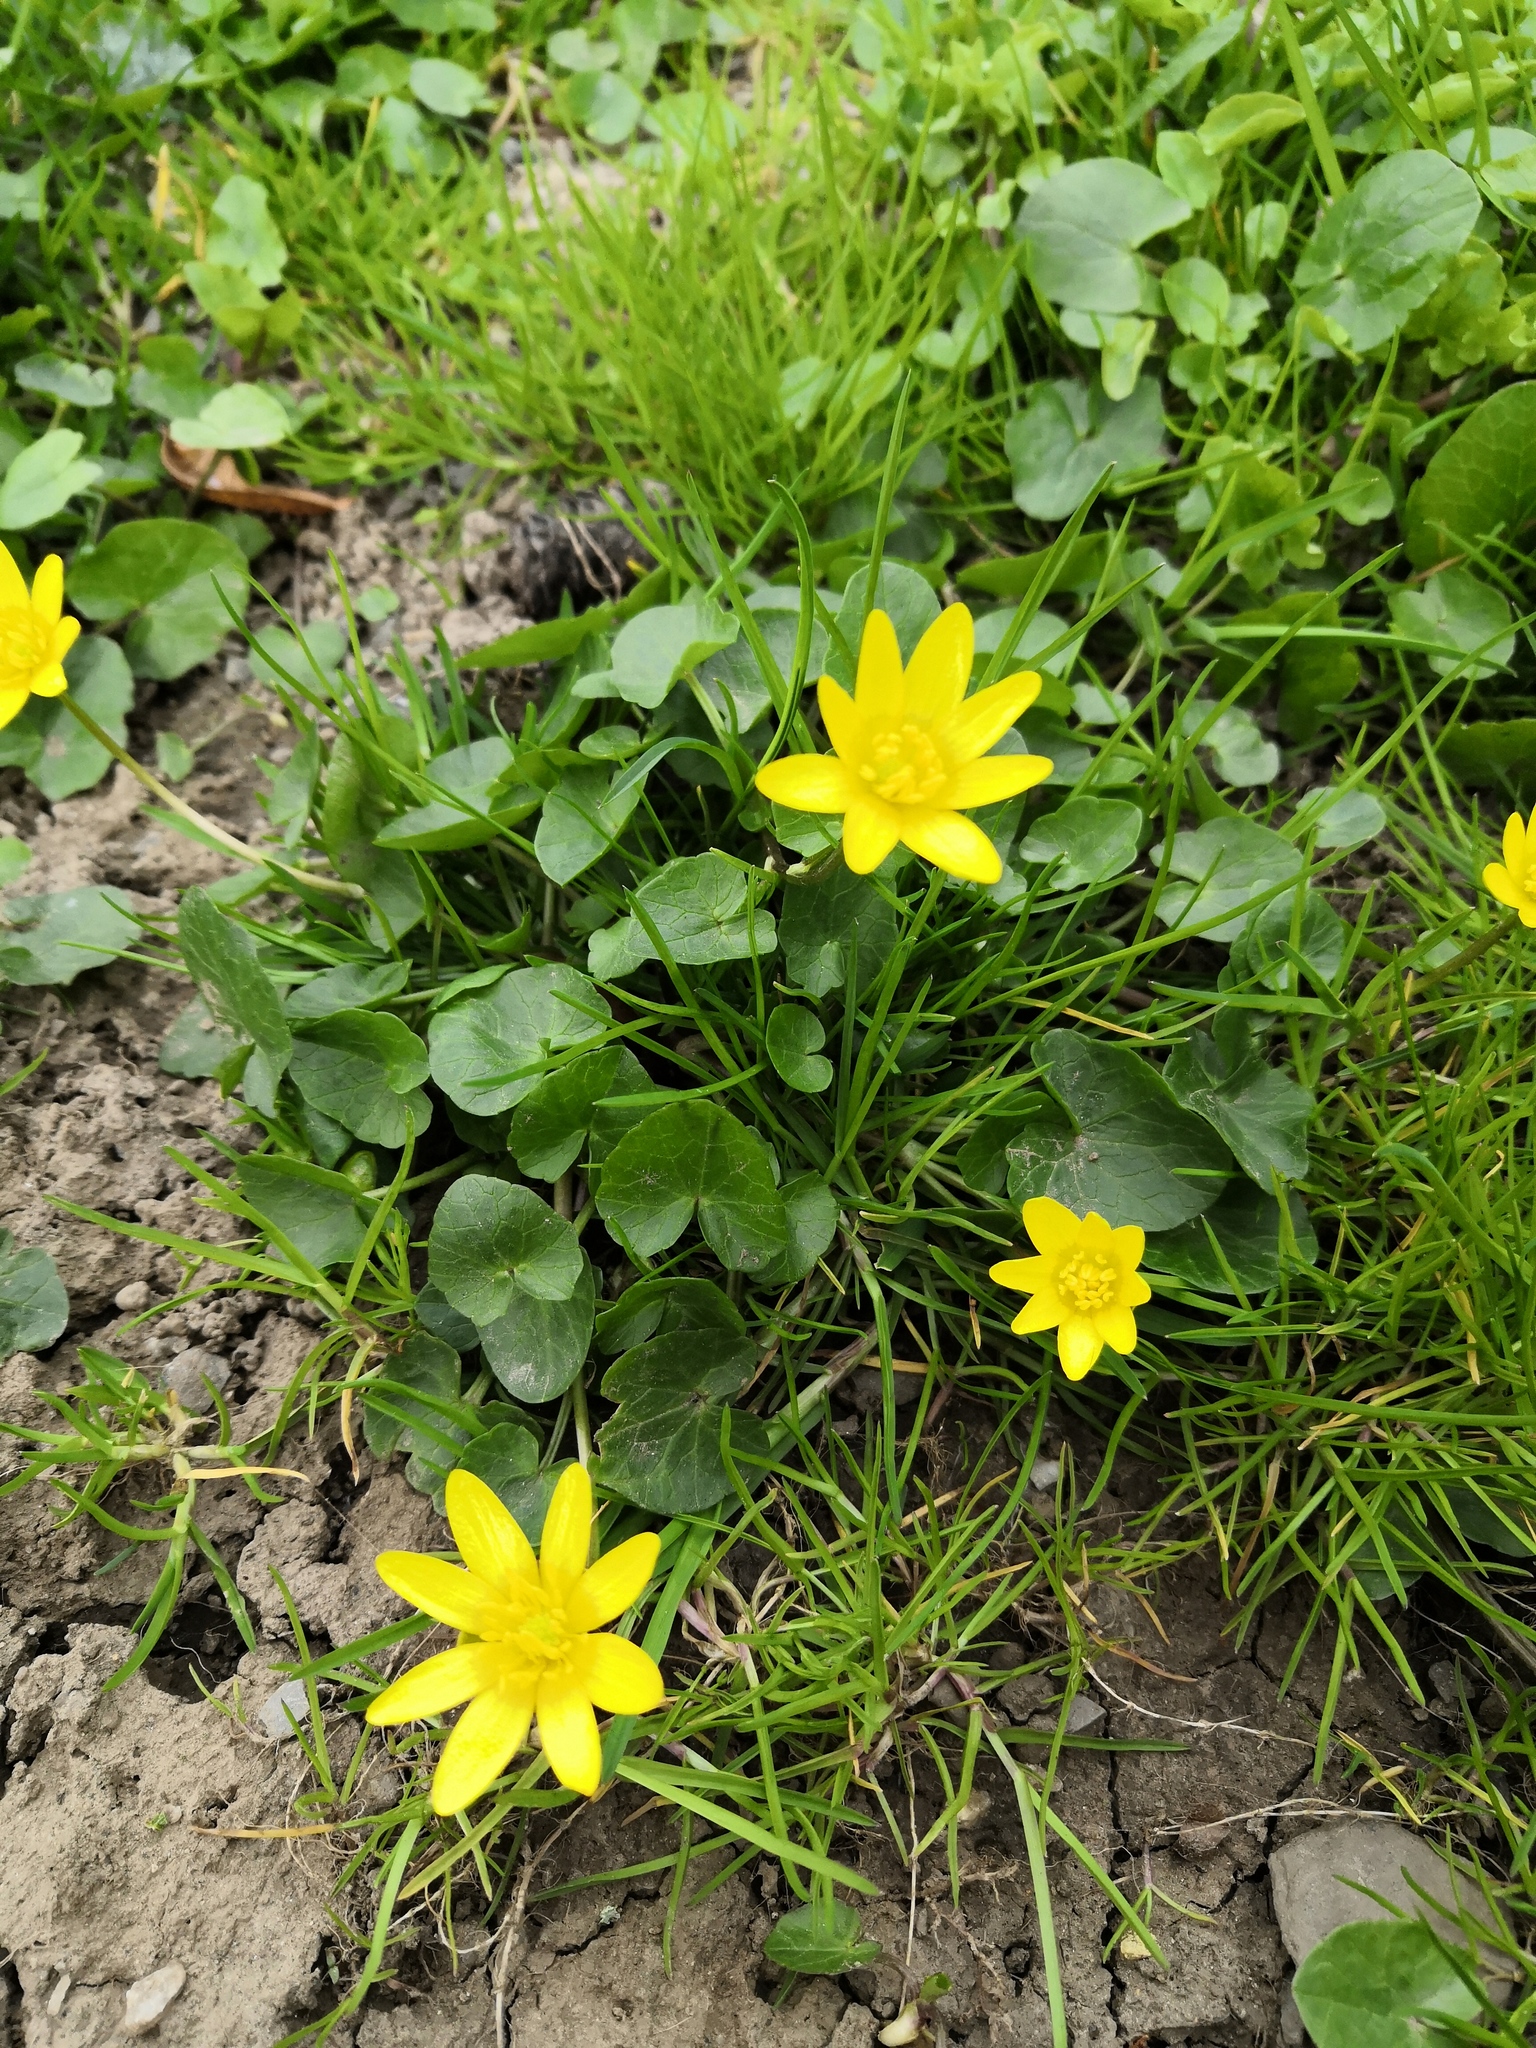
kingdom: Plantae
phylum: Tracheophyta
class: Magnoliopsida
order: Ranunculales
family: Ranunculaceae
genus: Ficaria
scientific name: Ficaria verna
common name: Lesser celandine
